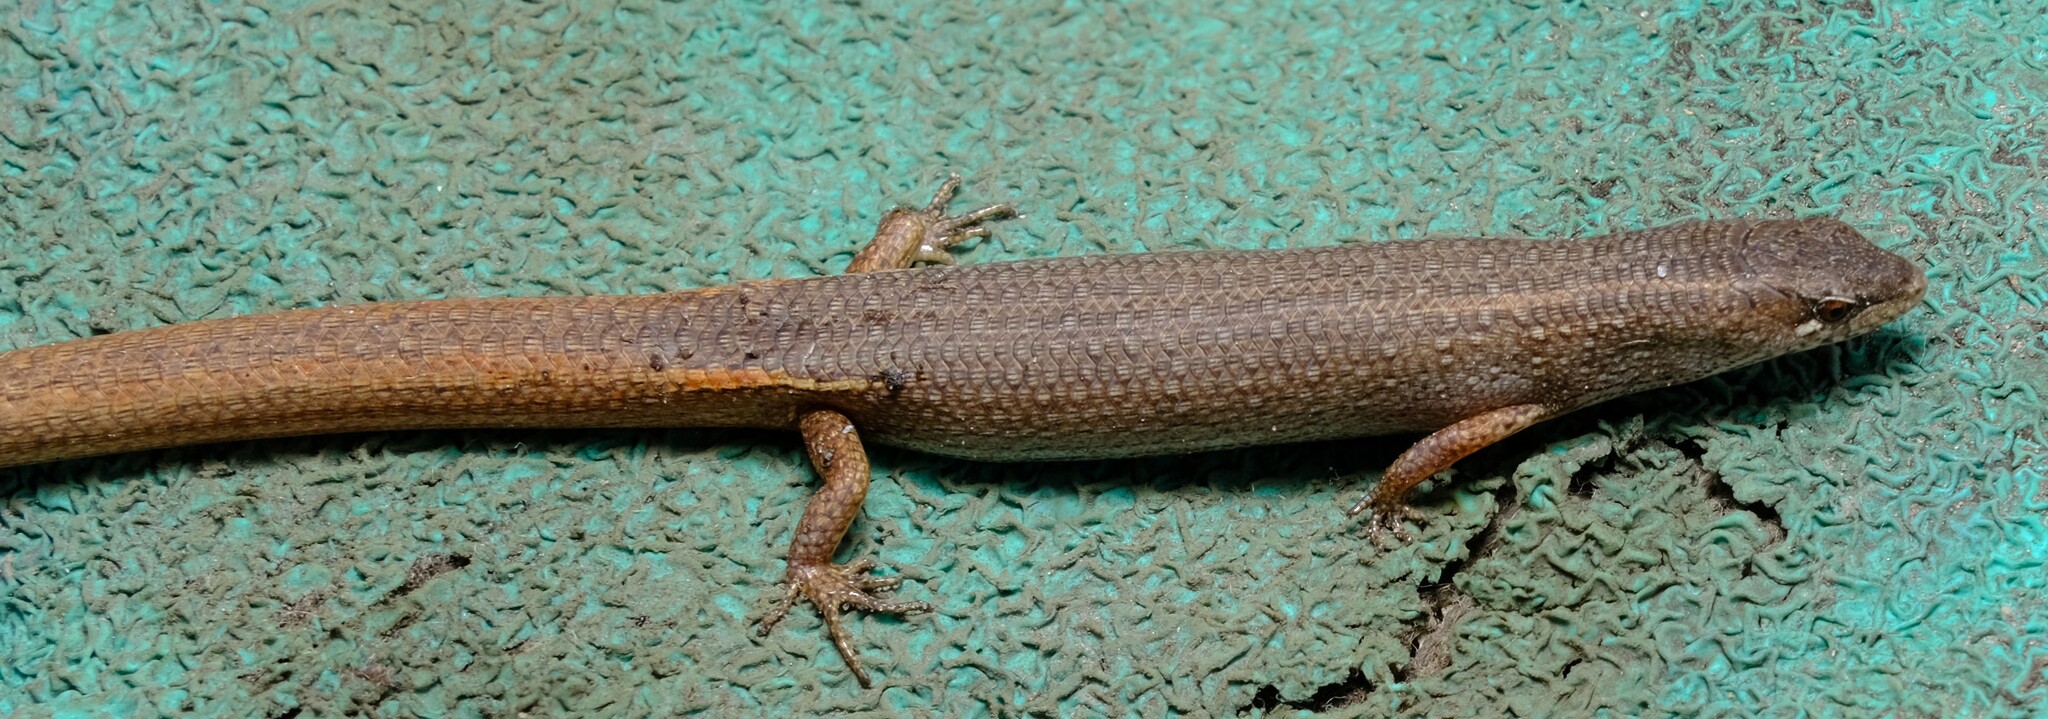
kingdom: Animalia
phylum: Chordata
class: Squamata
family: Scincidae
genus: Saproscincus
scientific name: Saproscincus mustelinus
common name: Southern weasel skink
